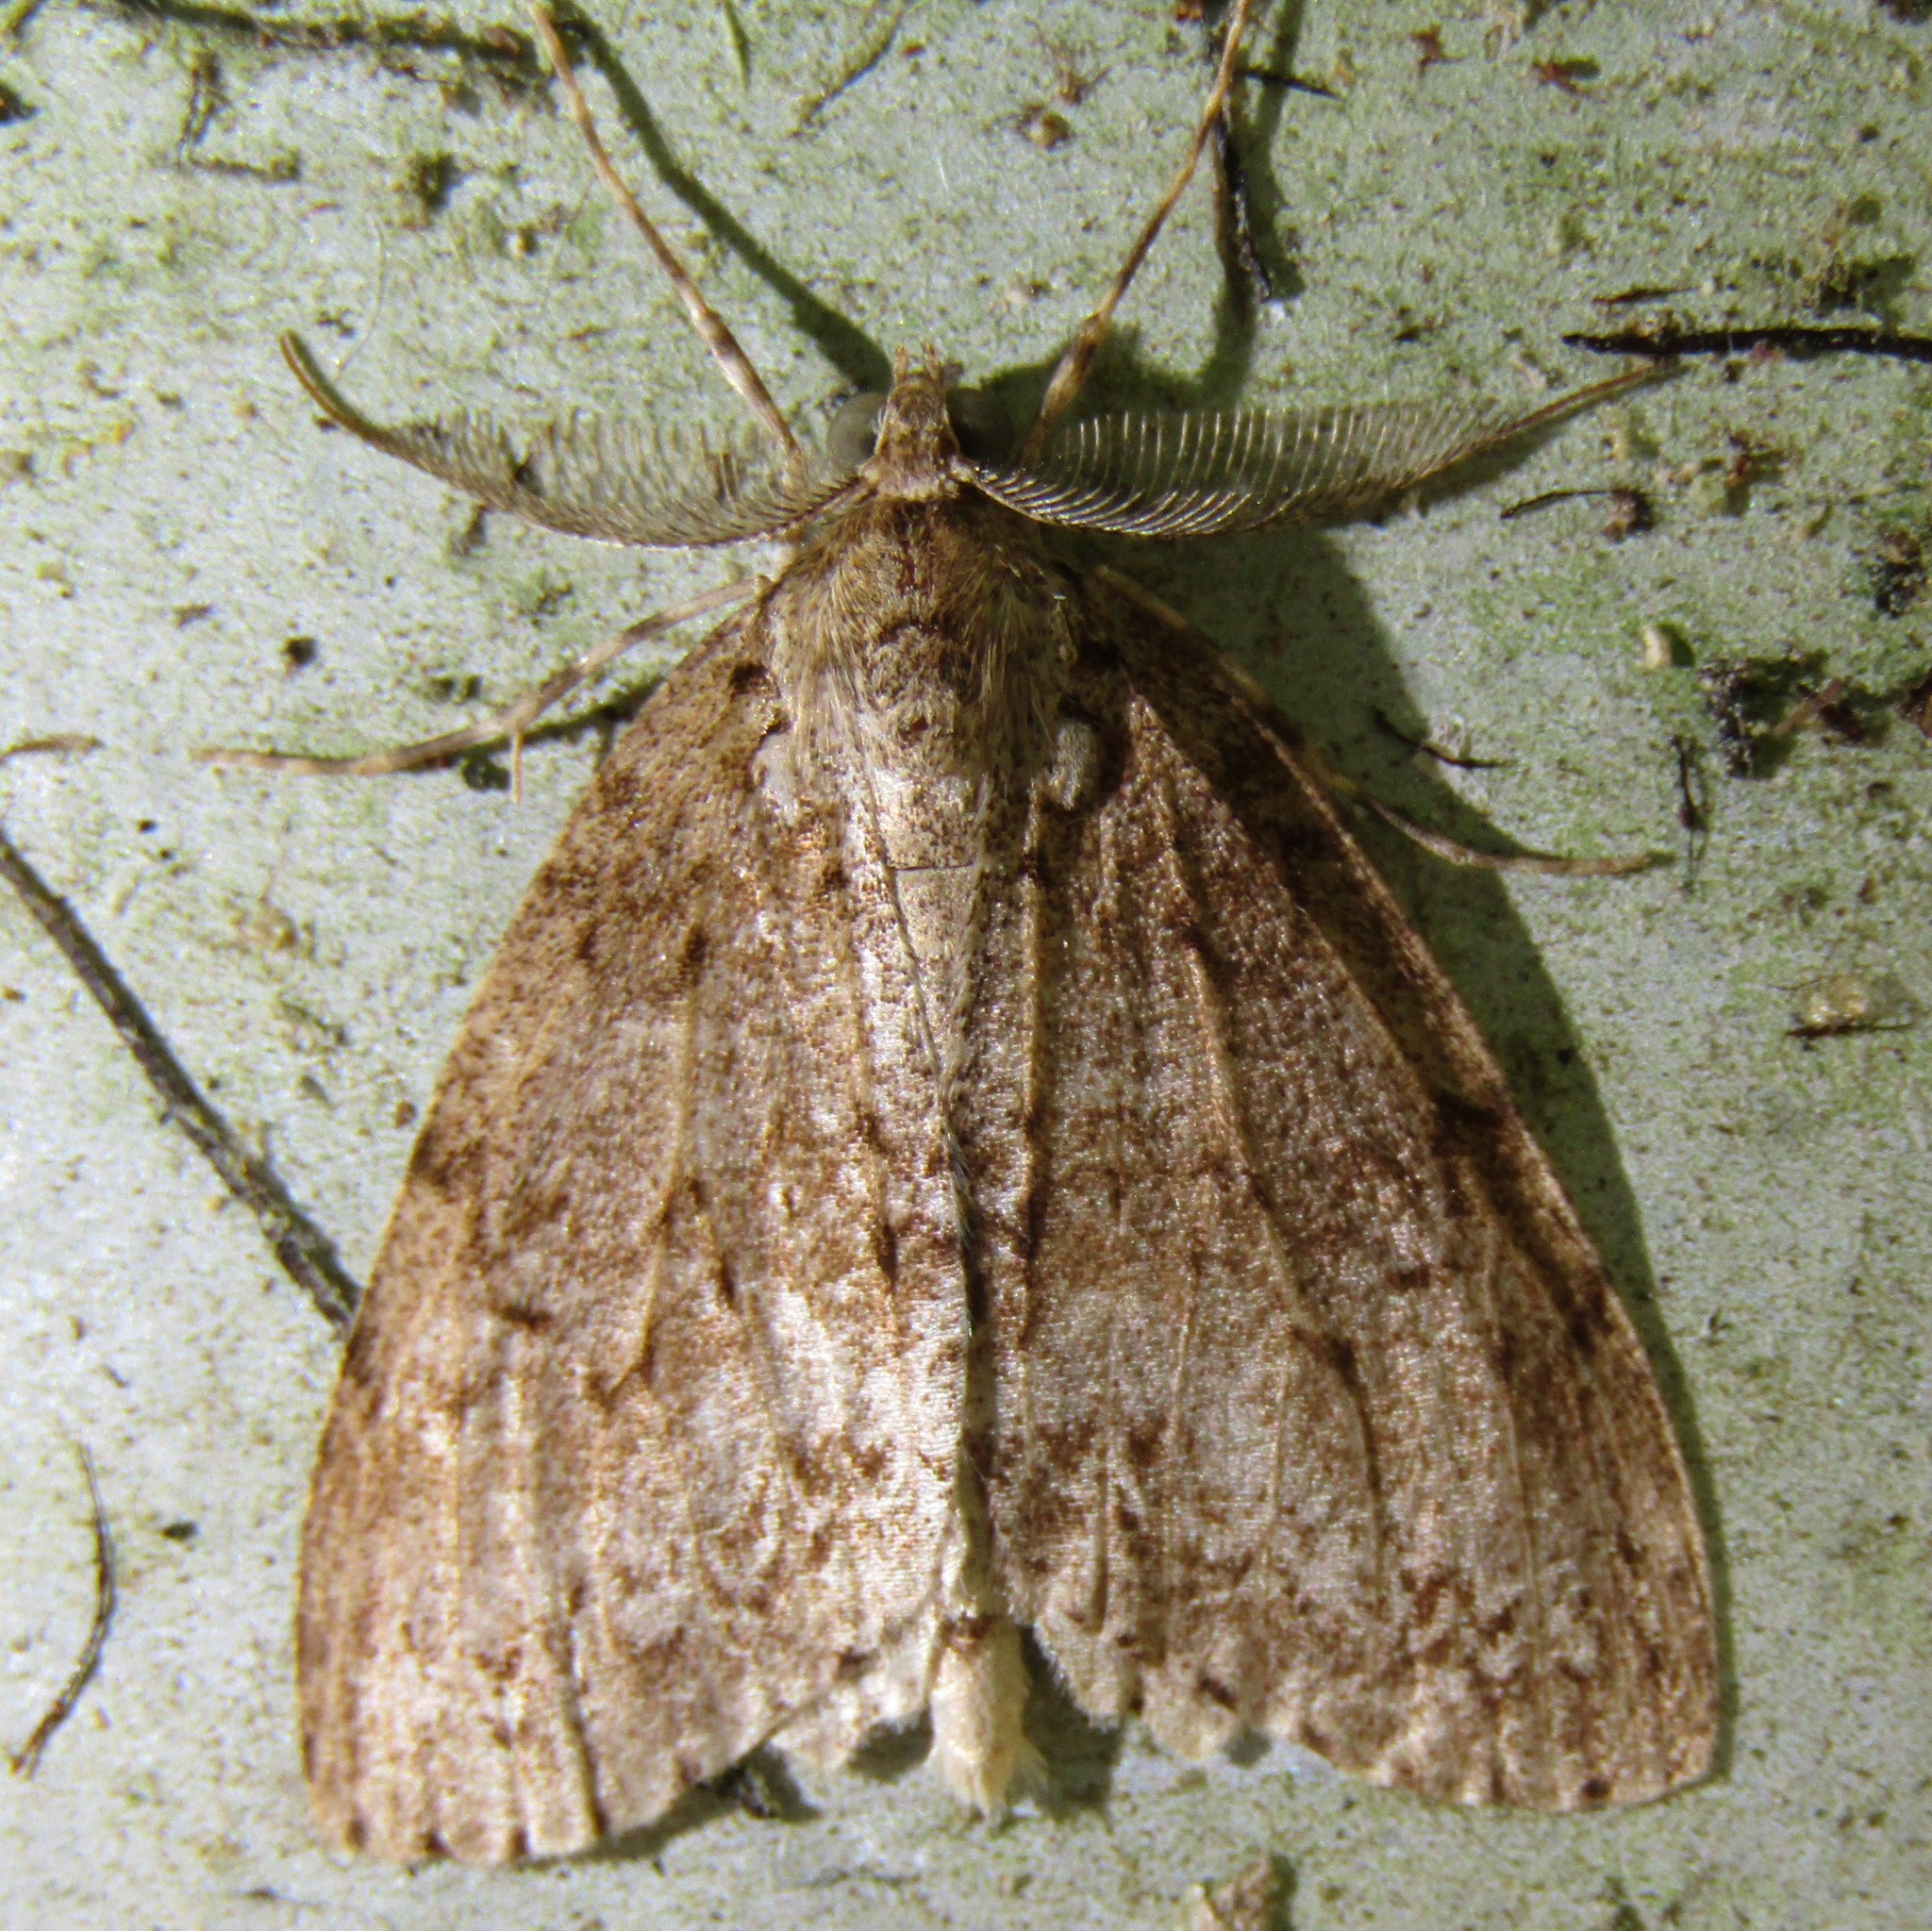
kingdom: Animalia
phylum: Arthropoda
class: Insecta
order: Lepidoptera
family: Geometridae
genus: Pseudocoremia
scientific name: Pseudocoremia fenerata
